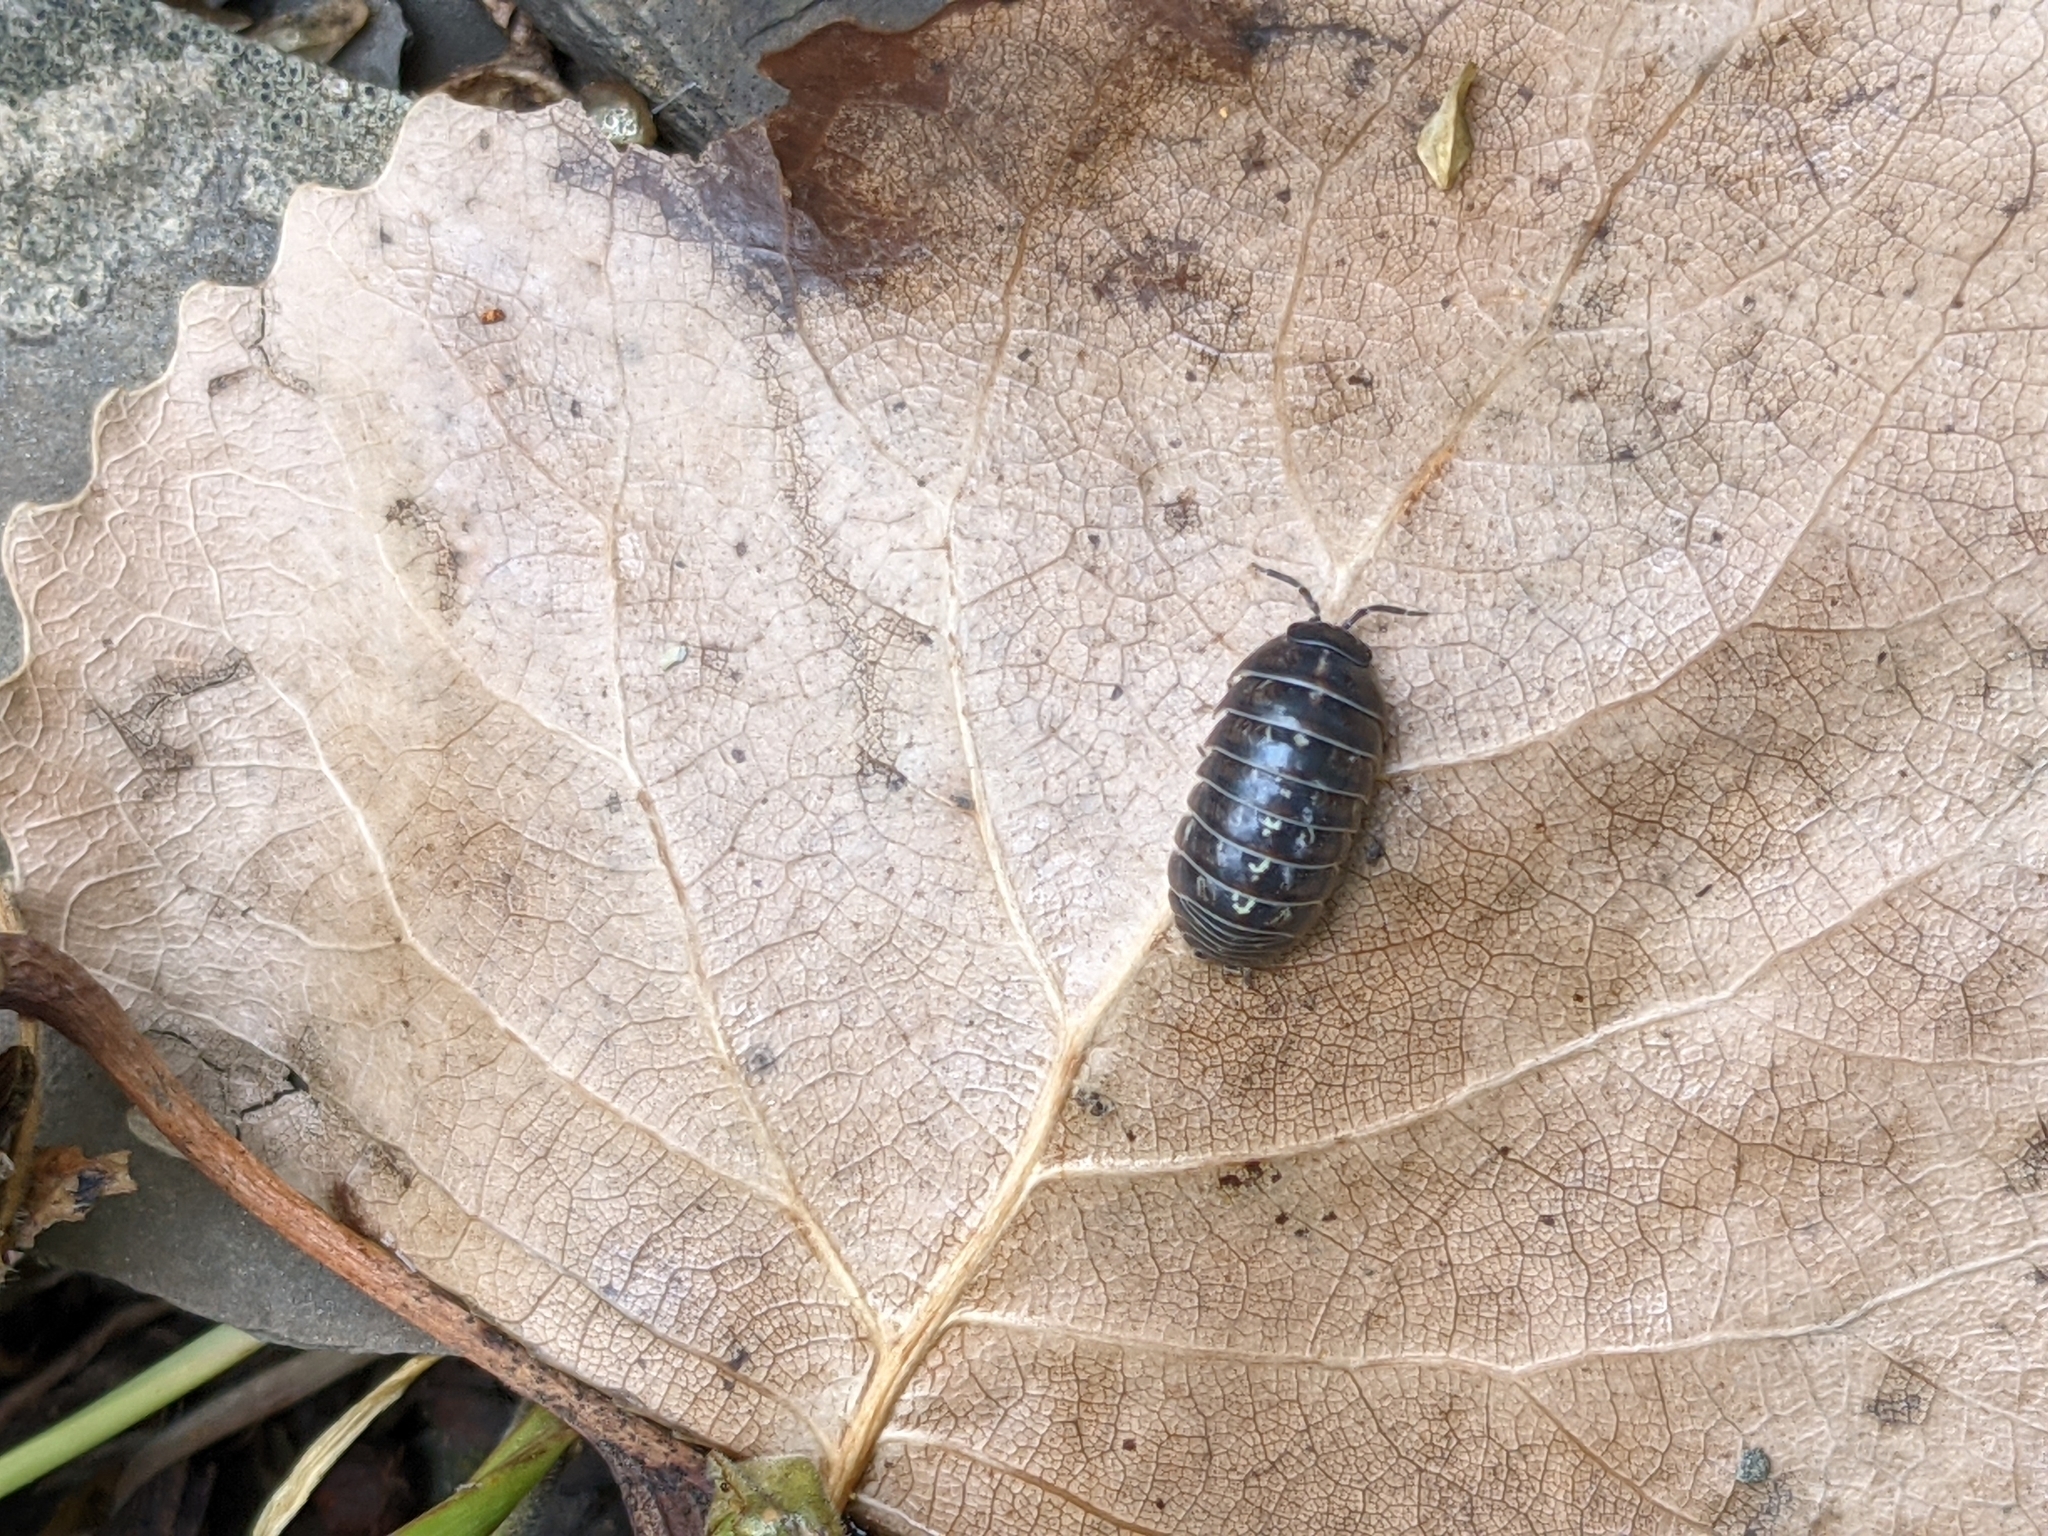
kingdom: Animalia
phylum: Arthropoda
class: Malacostraca
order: Isopoda
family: Armadillidiidae
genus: Armadillidium
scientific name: Armadillidium vulgare
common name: Common pill woodlouse
